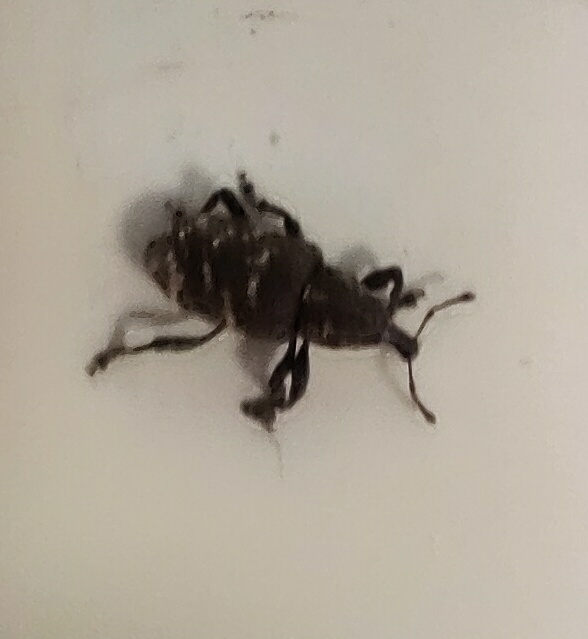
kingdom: Animalia
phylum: Arthropoda
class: Insecta
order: Coleoptera
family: Curculionidae
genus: Hylobius
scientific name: Hylobius abietis
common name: Large pine weevil
